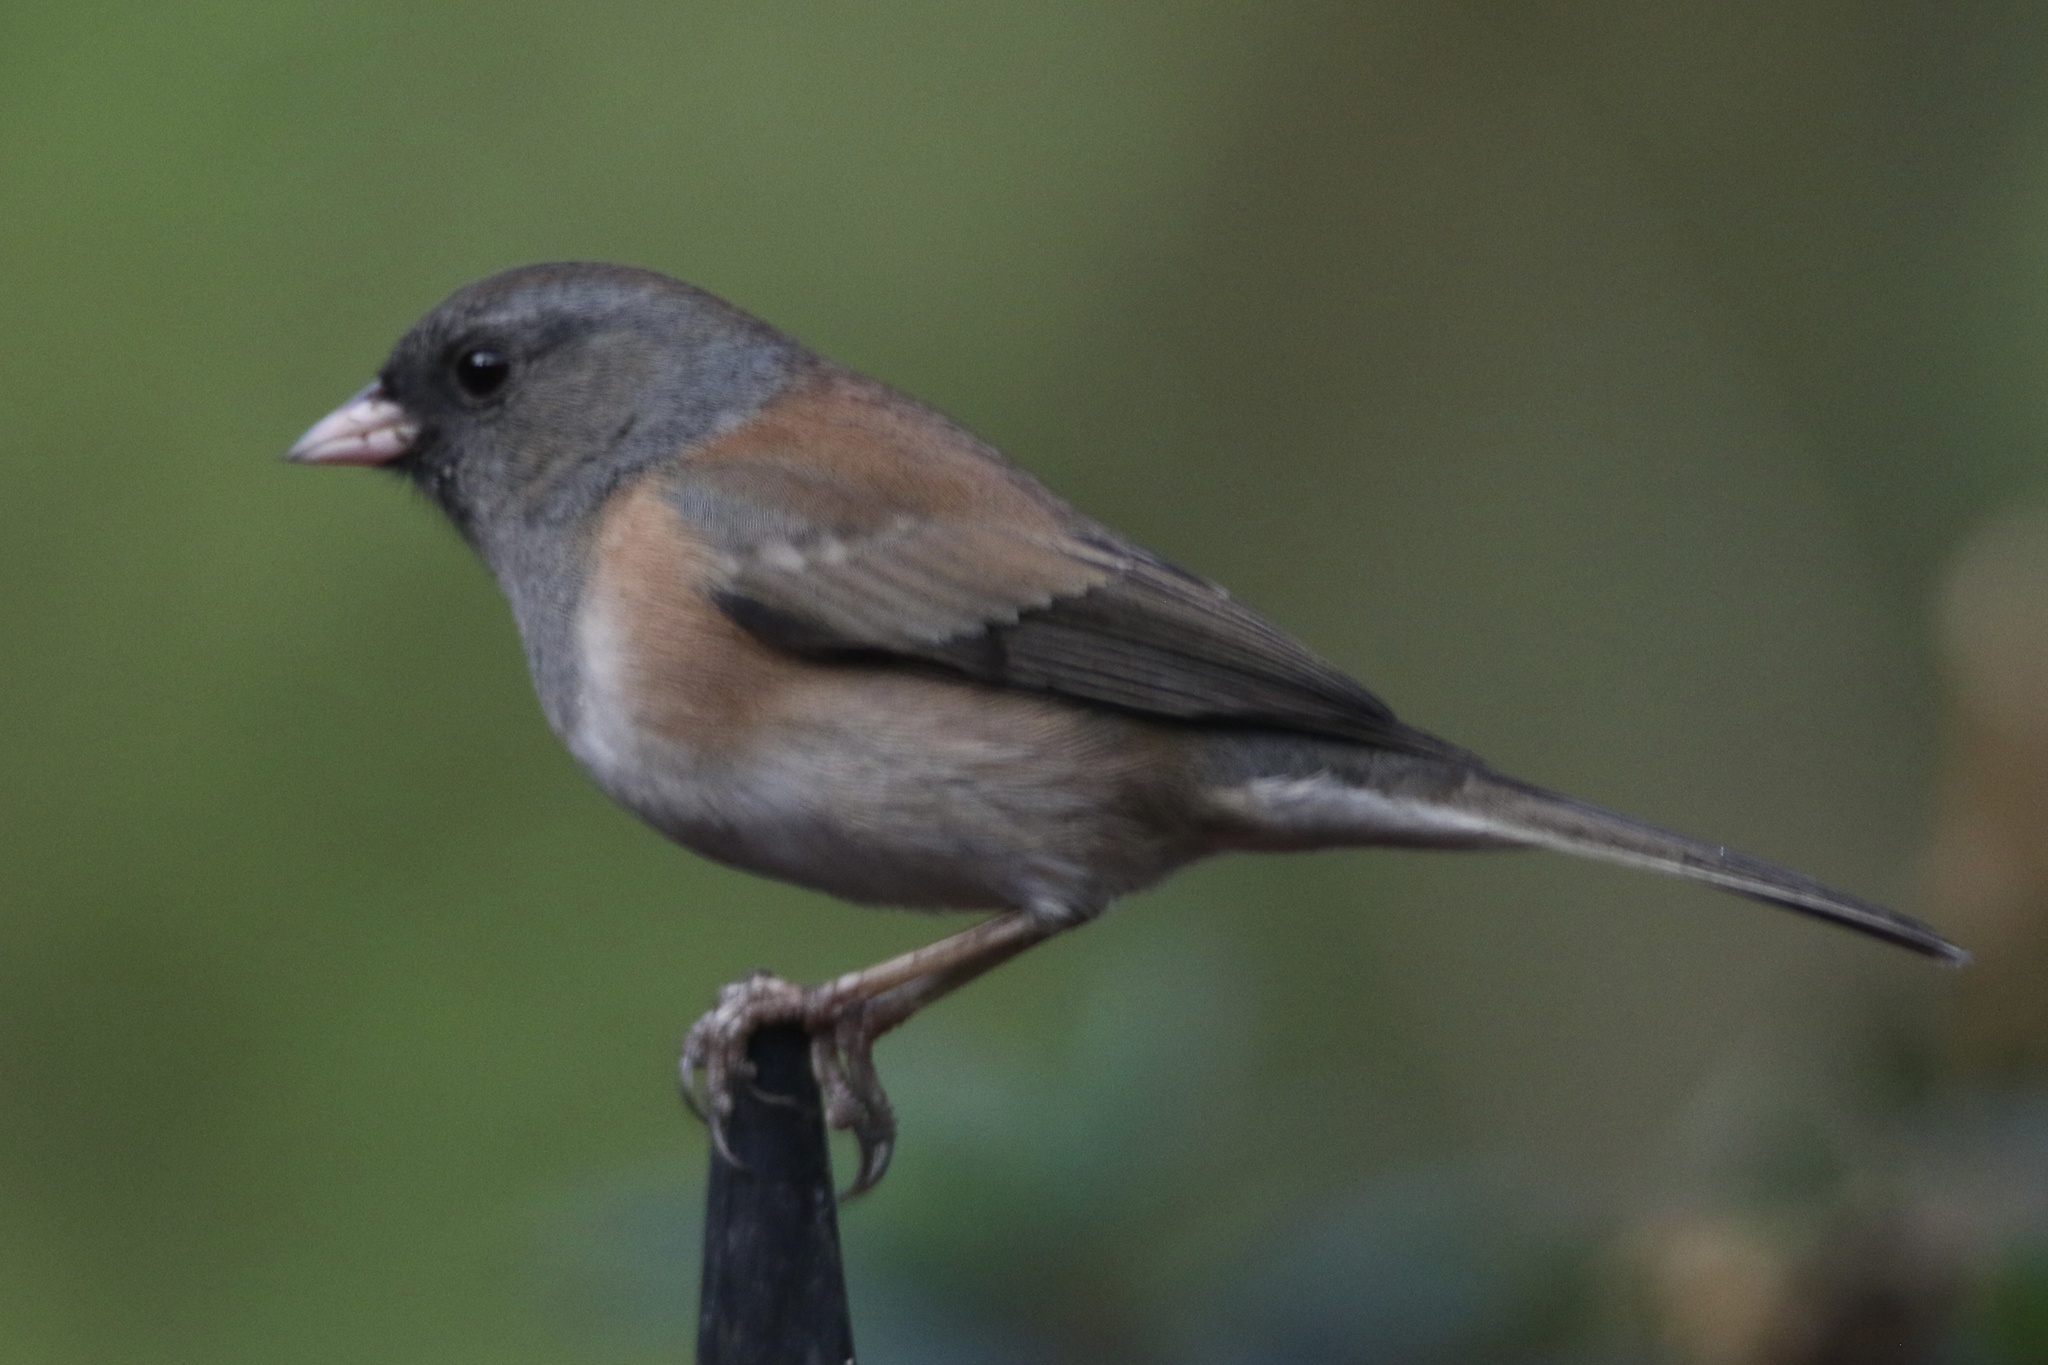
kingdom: Animalia
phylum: Chordata
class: Aves
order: Passeriformes
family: Passerellidae
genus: Junco
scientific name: Junco hyemalis
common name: Dark-eyed junco
